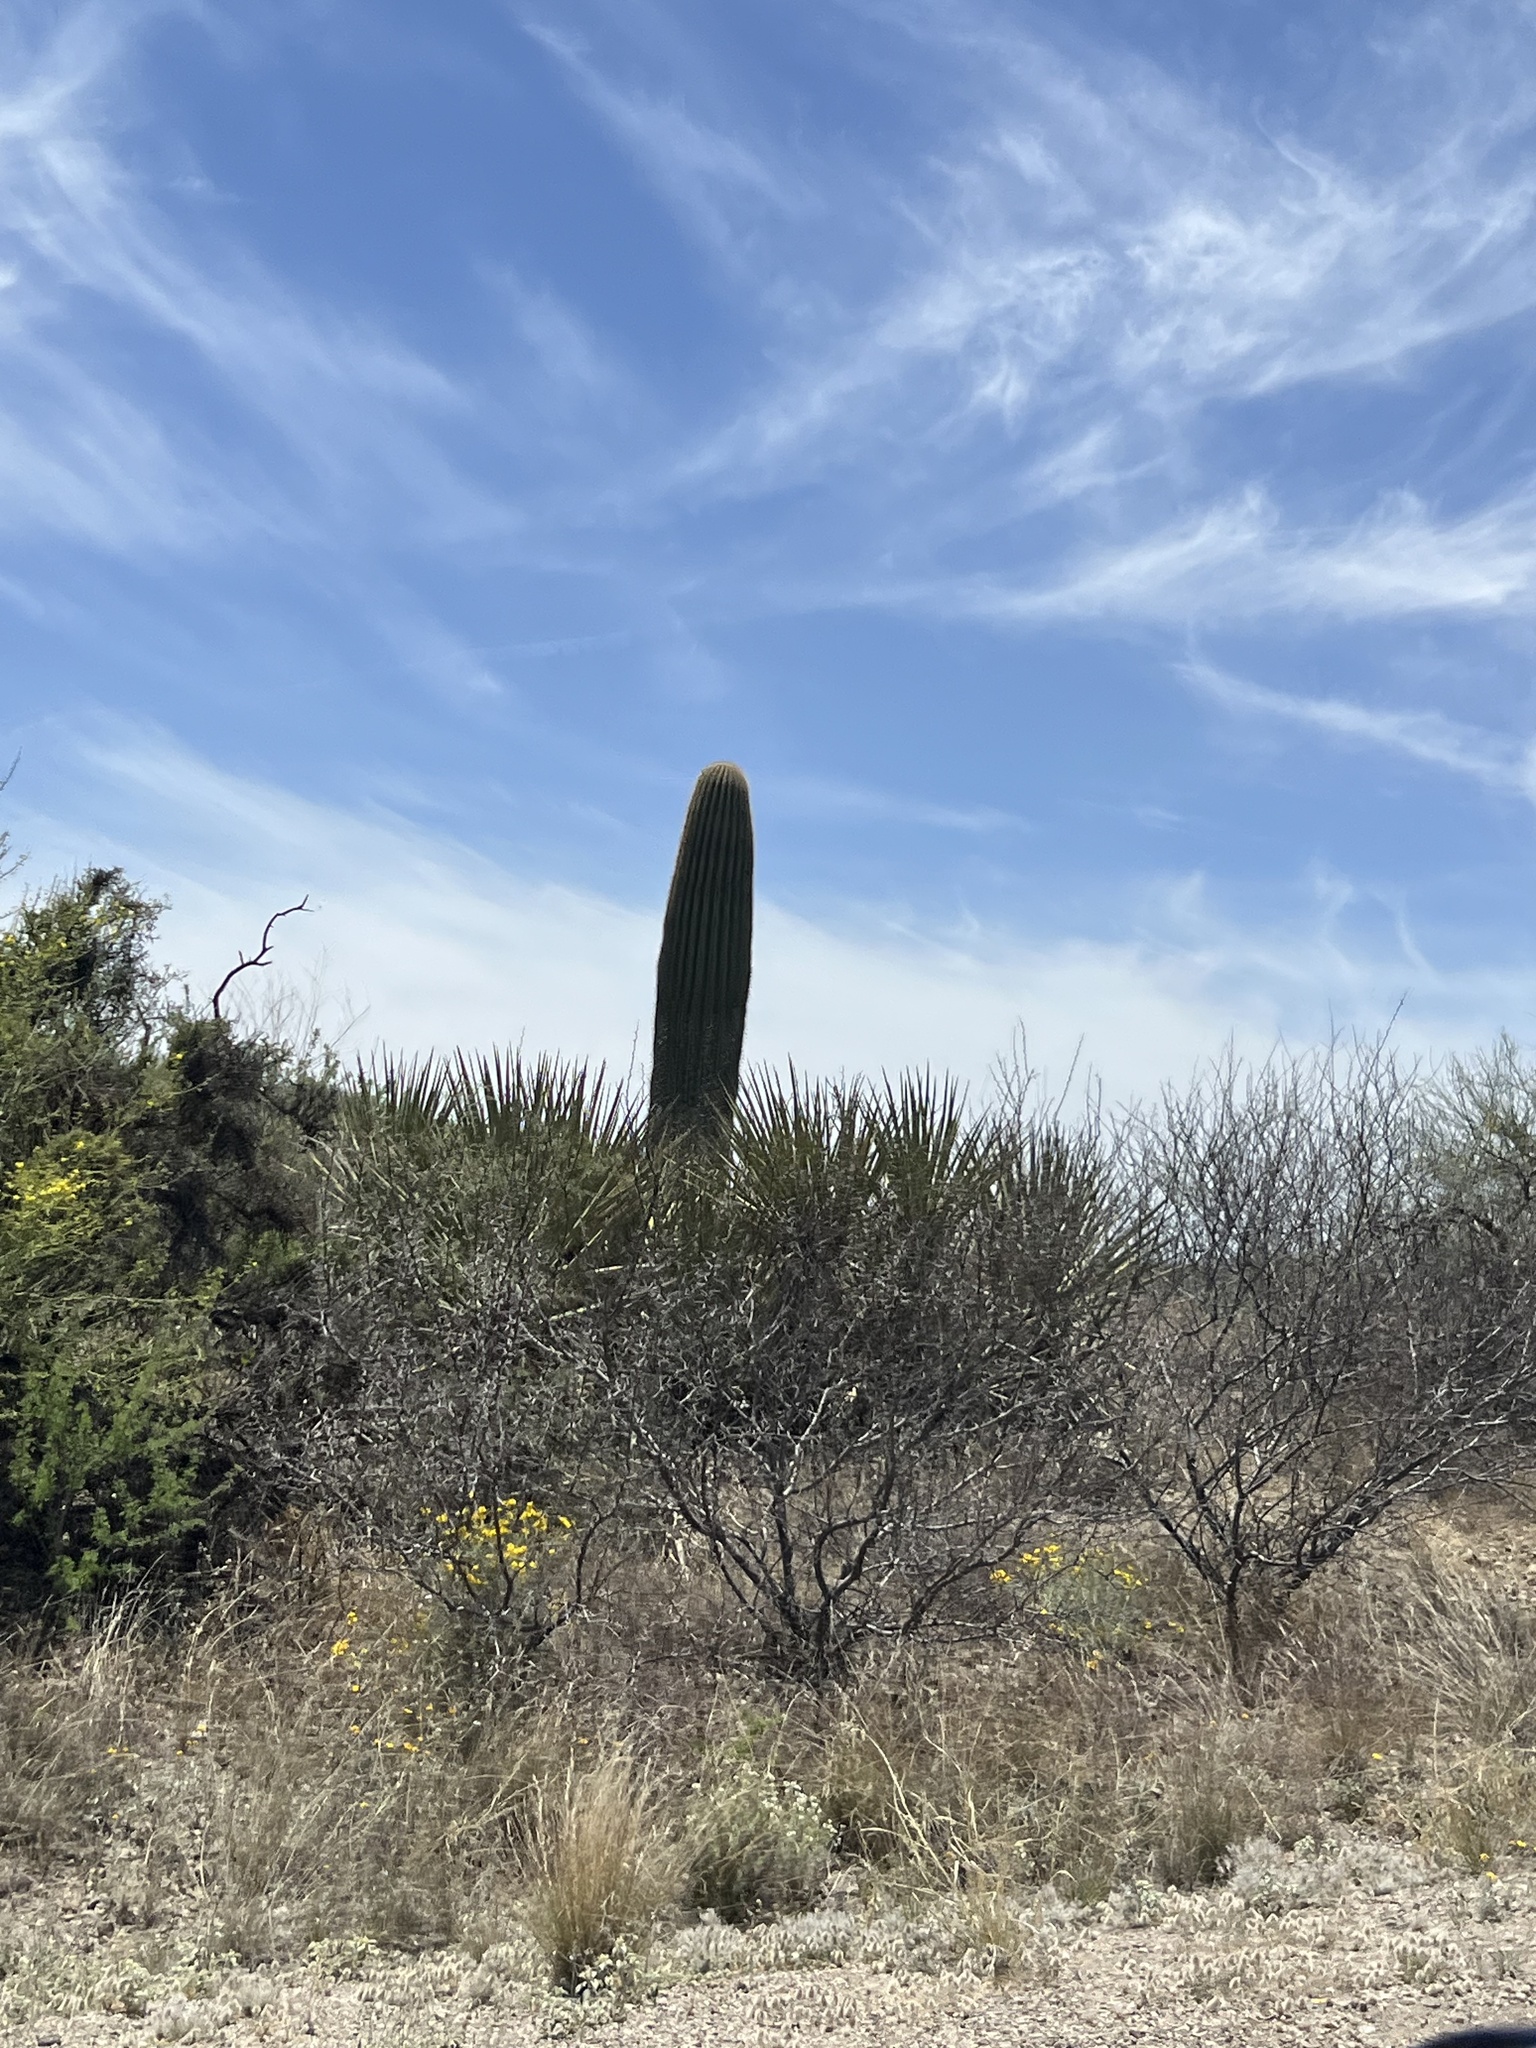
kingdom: Plantae
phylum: Tracheophyta
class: Magnoliopsida
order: Caryophyllales
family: Cactaceae
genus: Carnegiea
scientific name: Carnegiea gigantea
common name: Saguaro
